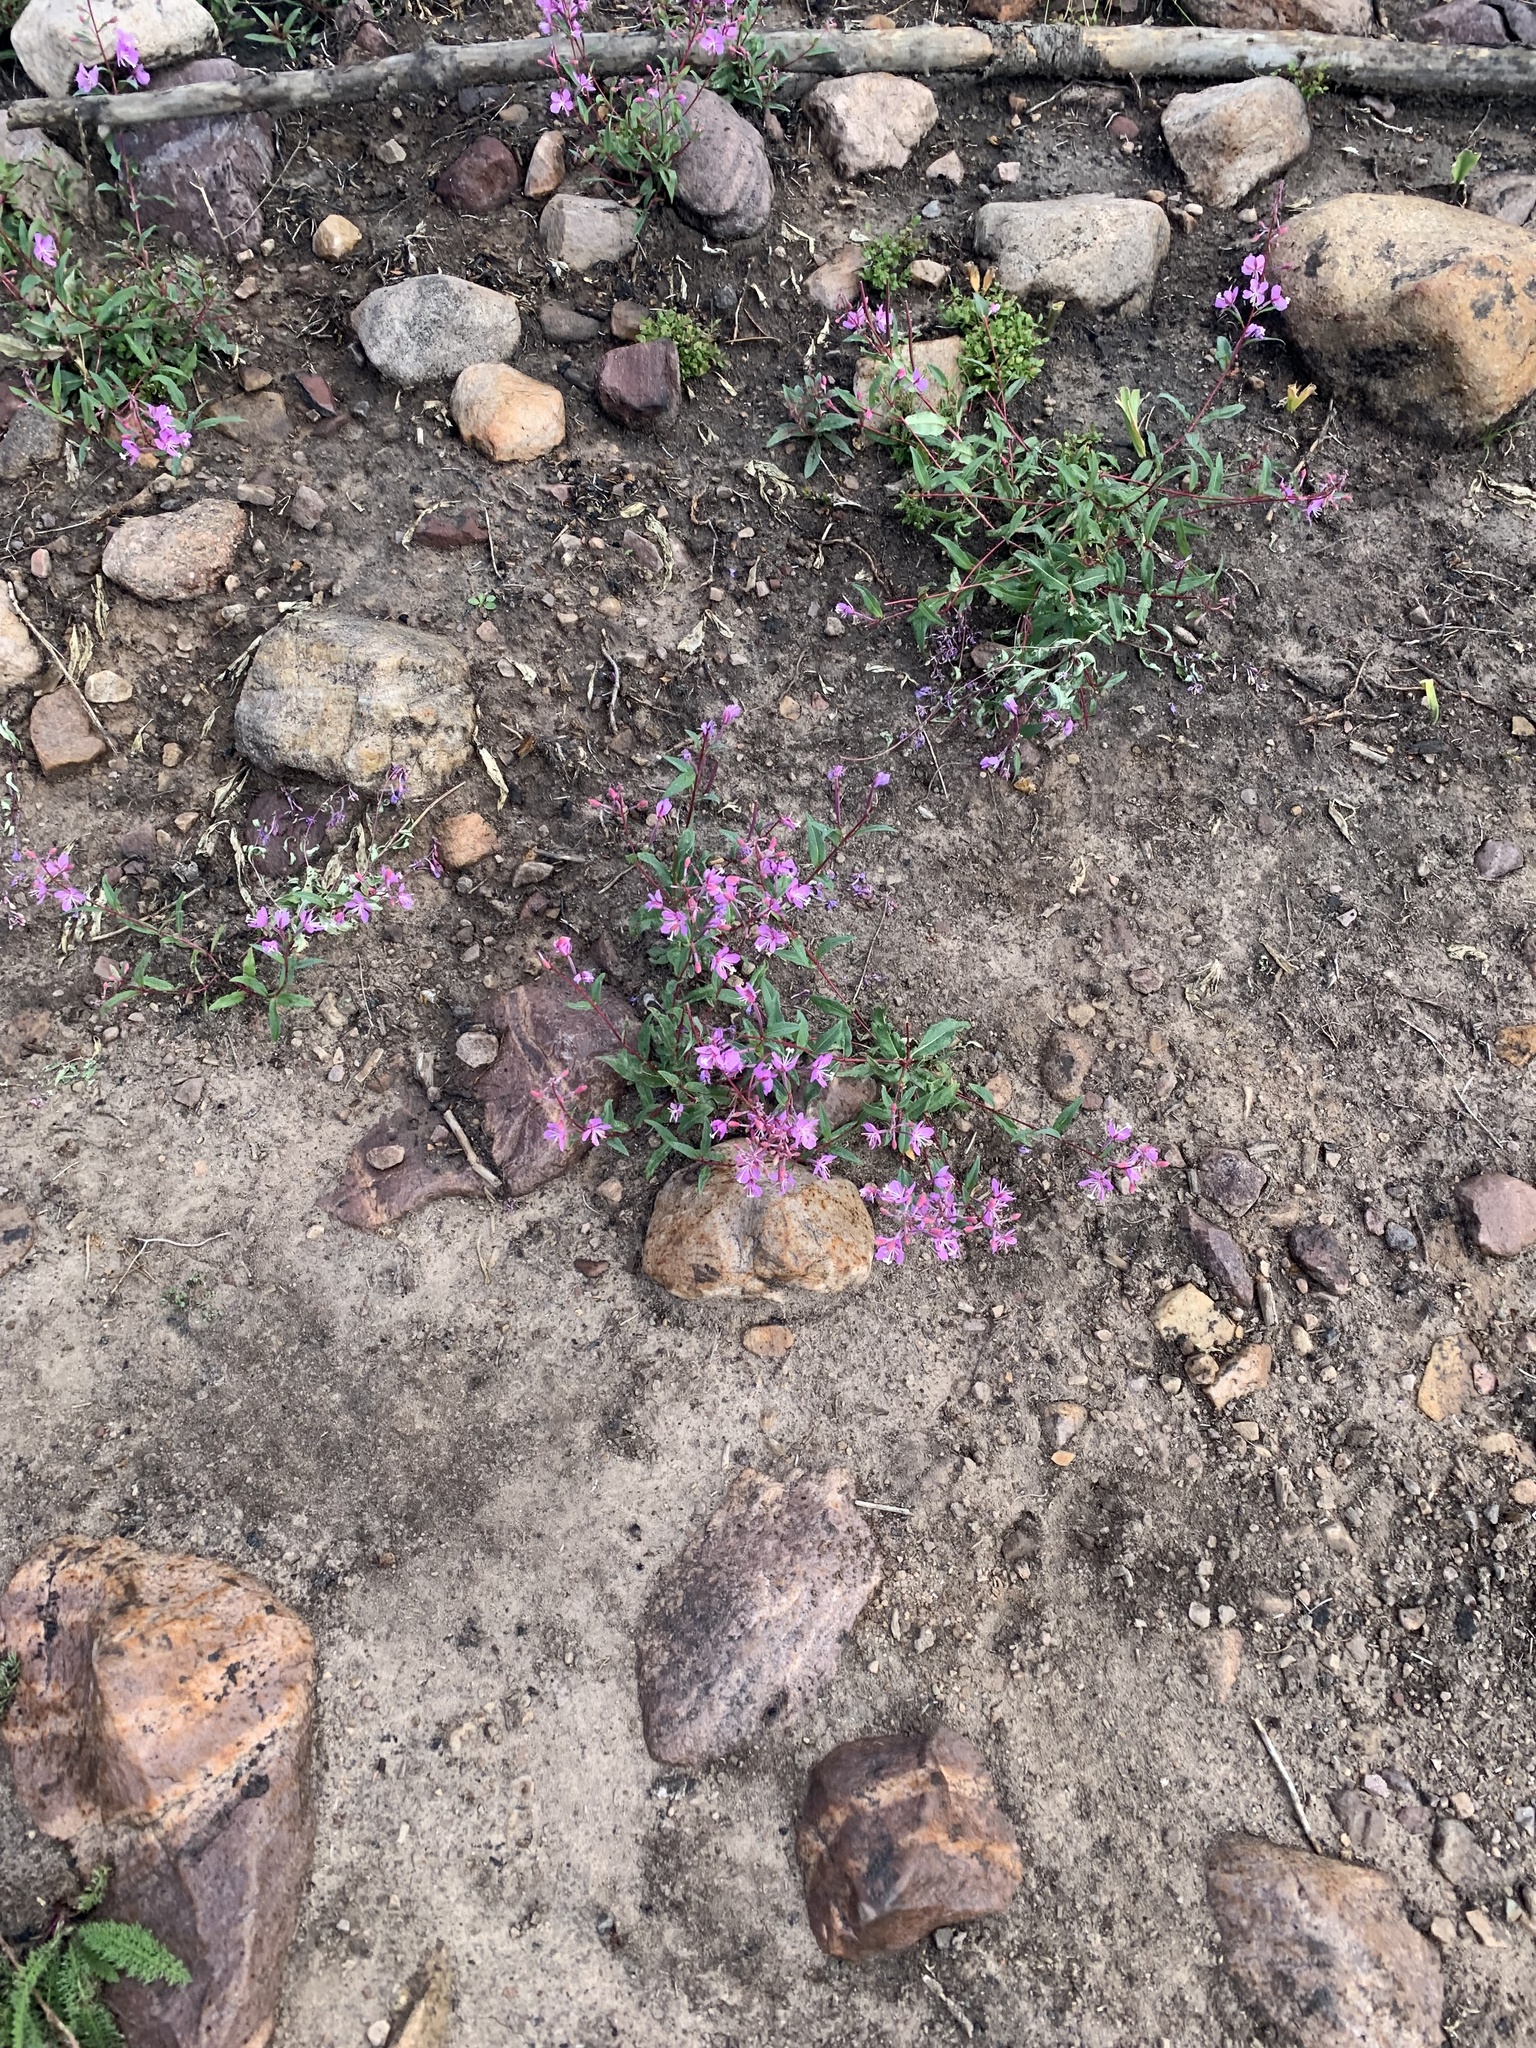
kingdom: Plantae
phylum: Tracheophyta
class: Magnoliopsida
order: Myrtales
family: Onagraceae
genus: Chamaenerion
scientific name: Chamaenerion angustifolium
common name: Fireweed
